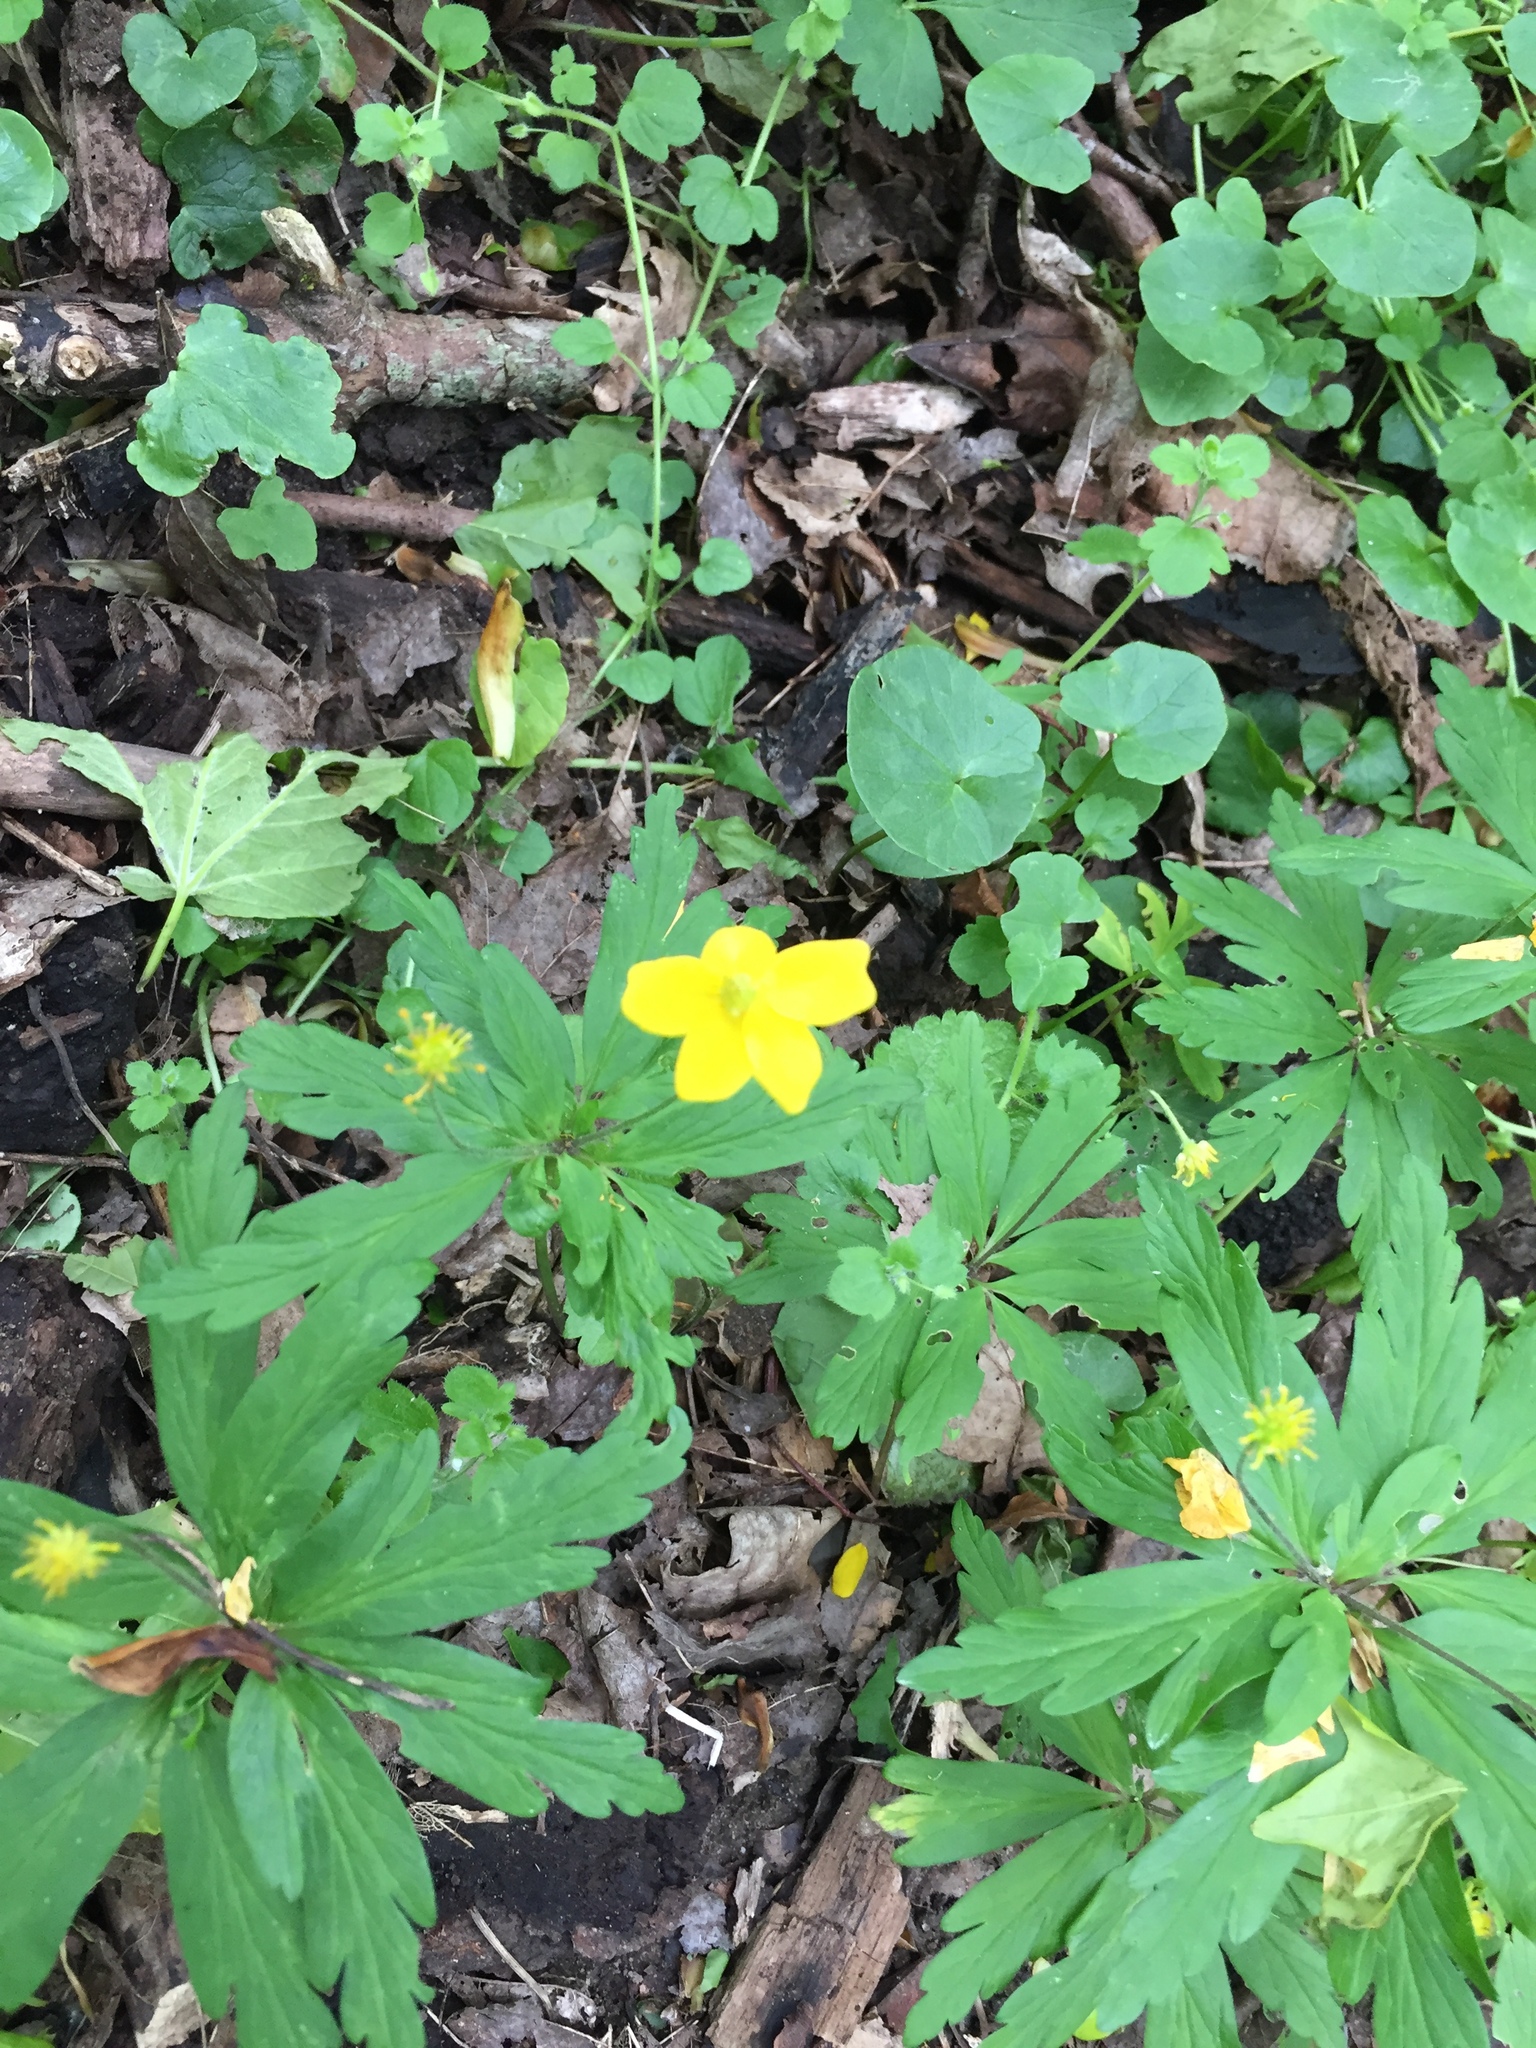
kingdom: Plantae
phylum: Tracheophyta
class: Magnoliopsida
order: Ranunculales
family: Ranunculaceae
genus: Anemone
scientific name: Anemone ranunculoides
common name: Yellow anemone
